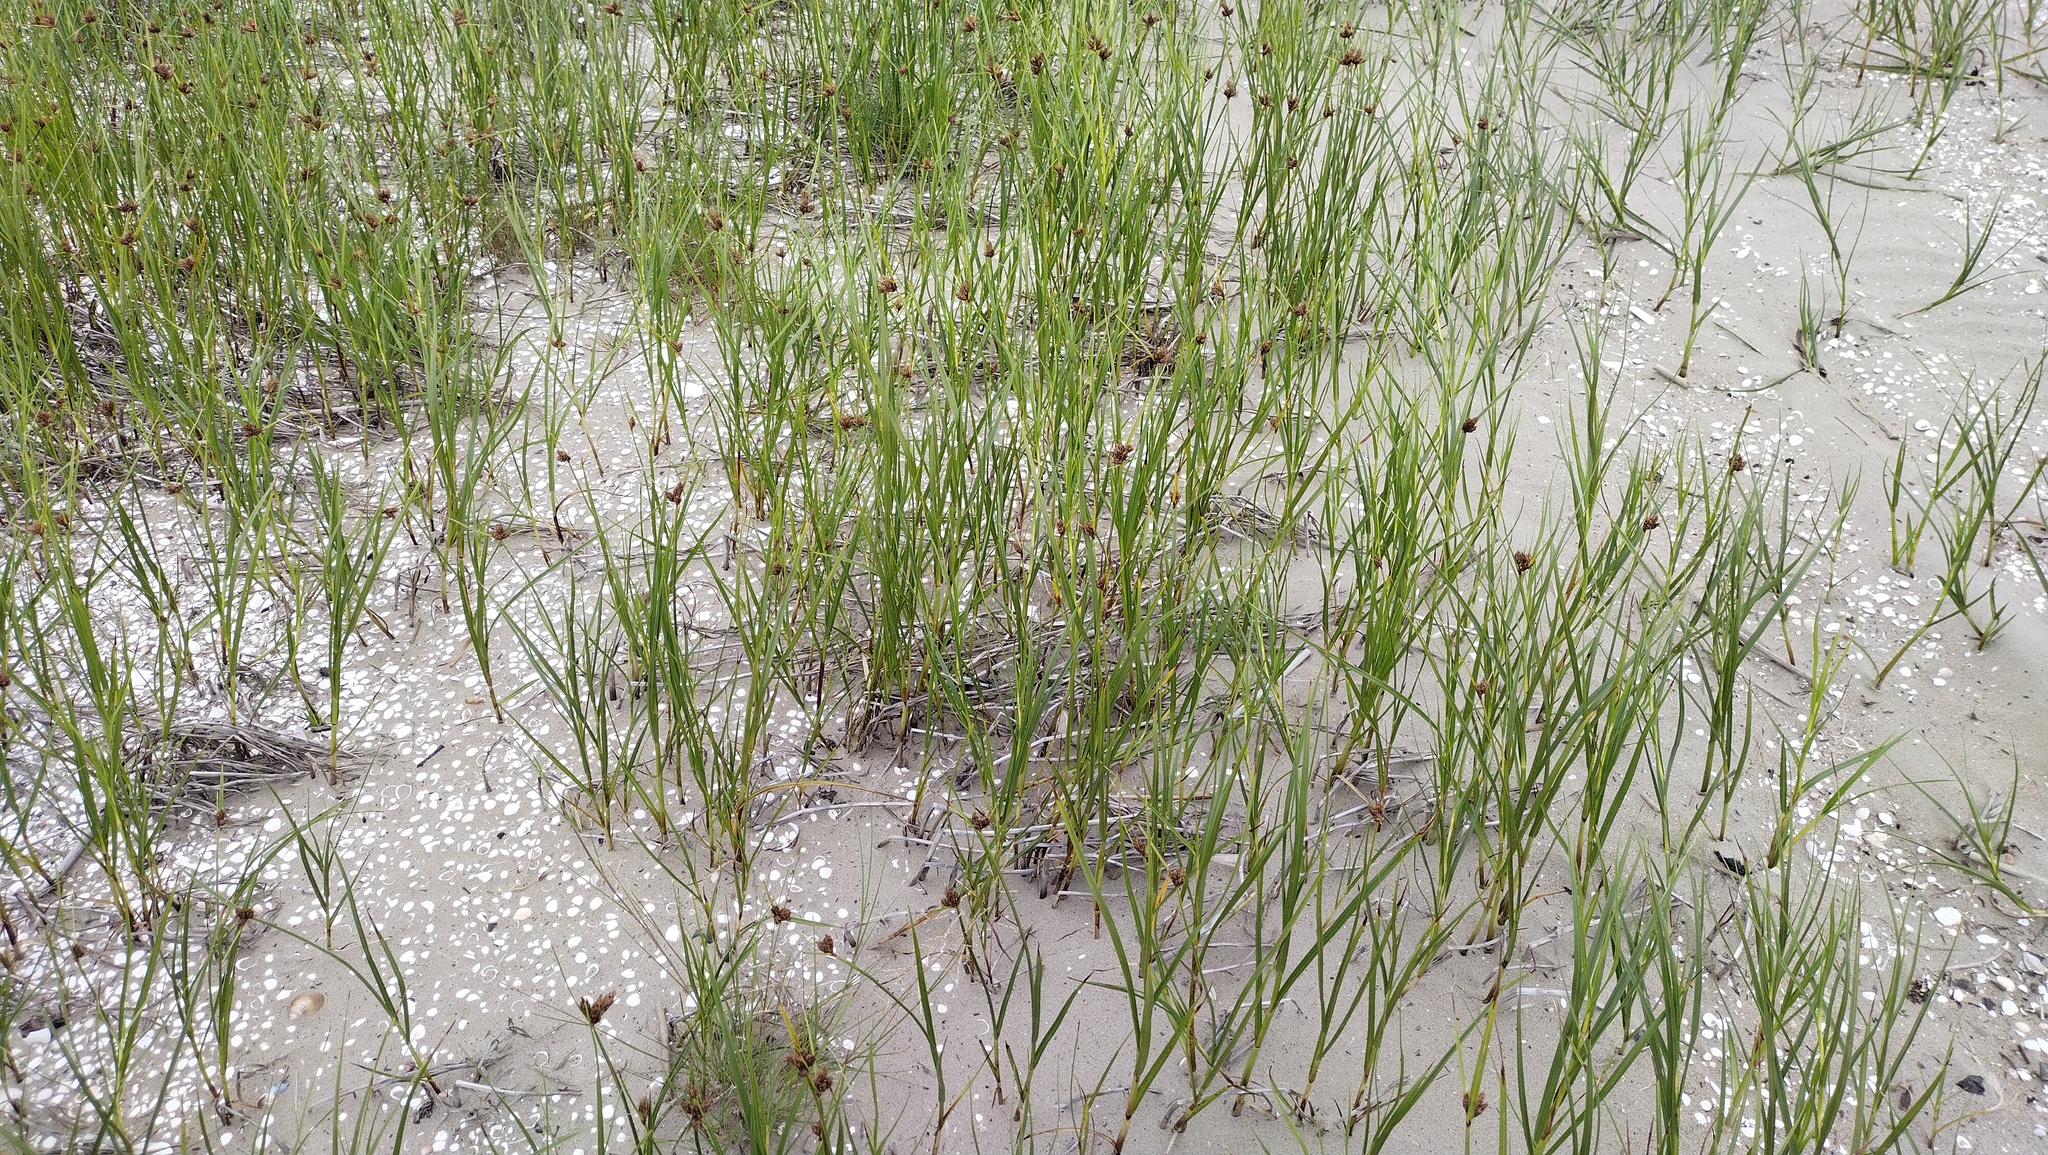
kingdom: Plantae
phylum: Tracheophyta
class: Liliopsida
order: Poales
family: Cyperaceae
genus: Bolboschoenus
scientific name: Bolboschoenus maritimus
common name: Sea club-rush
